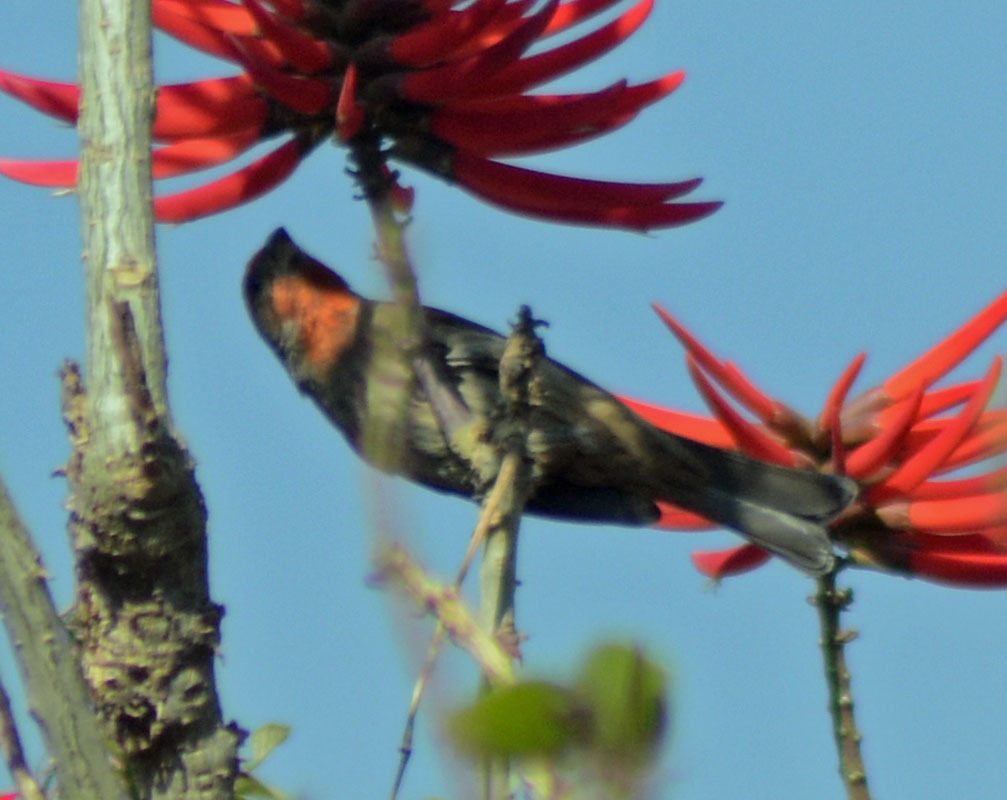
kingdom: Animalia
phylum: Chordata
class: Aves
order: Passeriformes
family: Fringillidae
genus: Haemorhous
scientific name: Haemorhous mexicanus
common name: House finch
